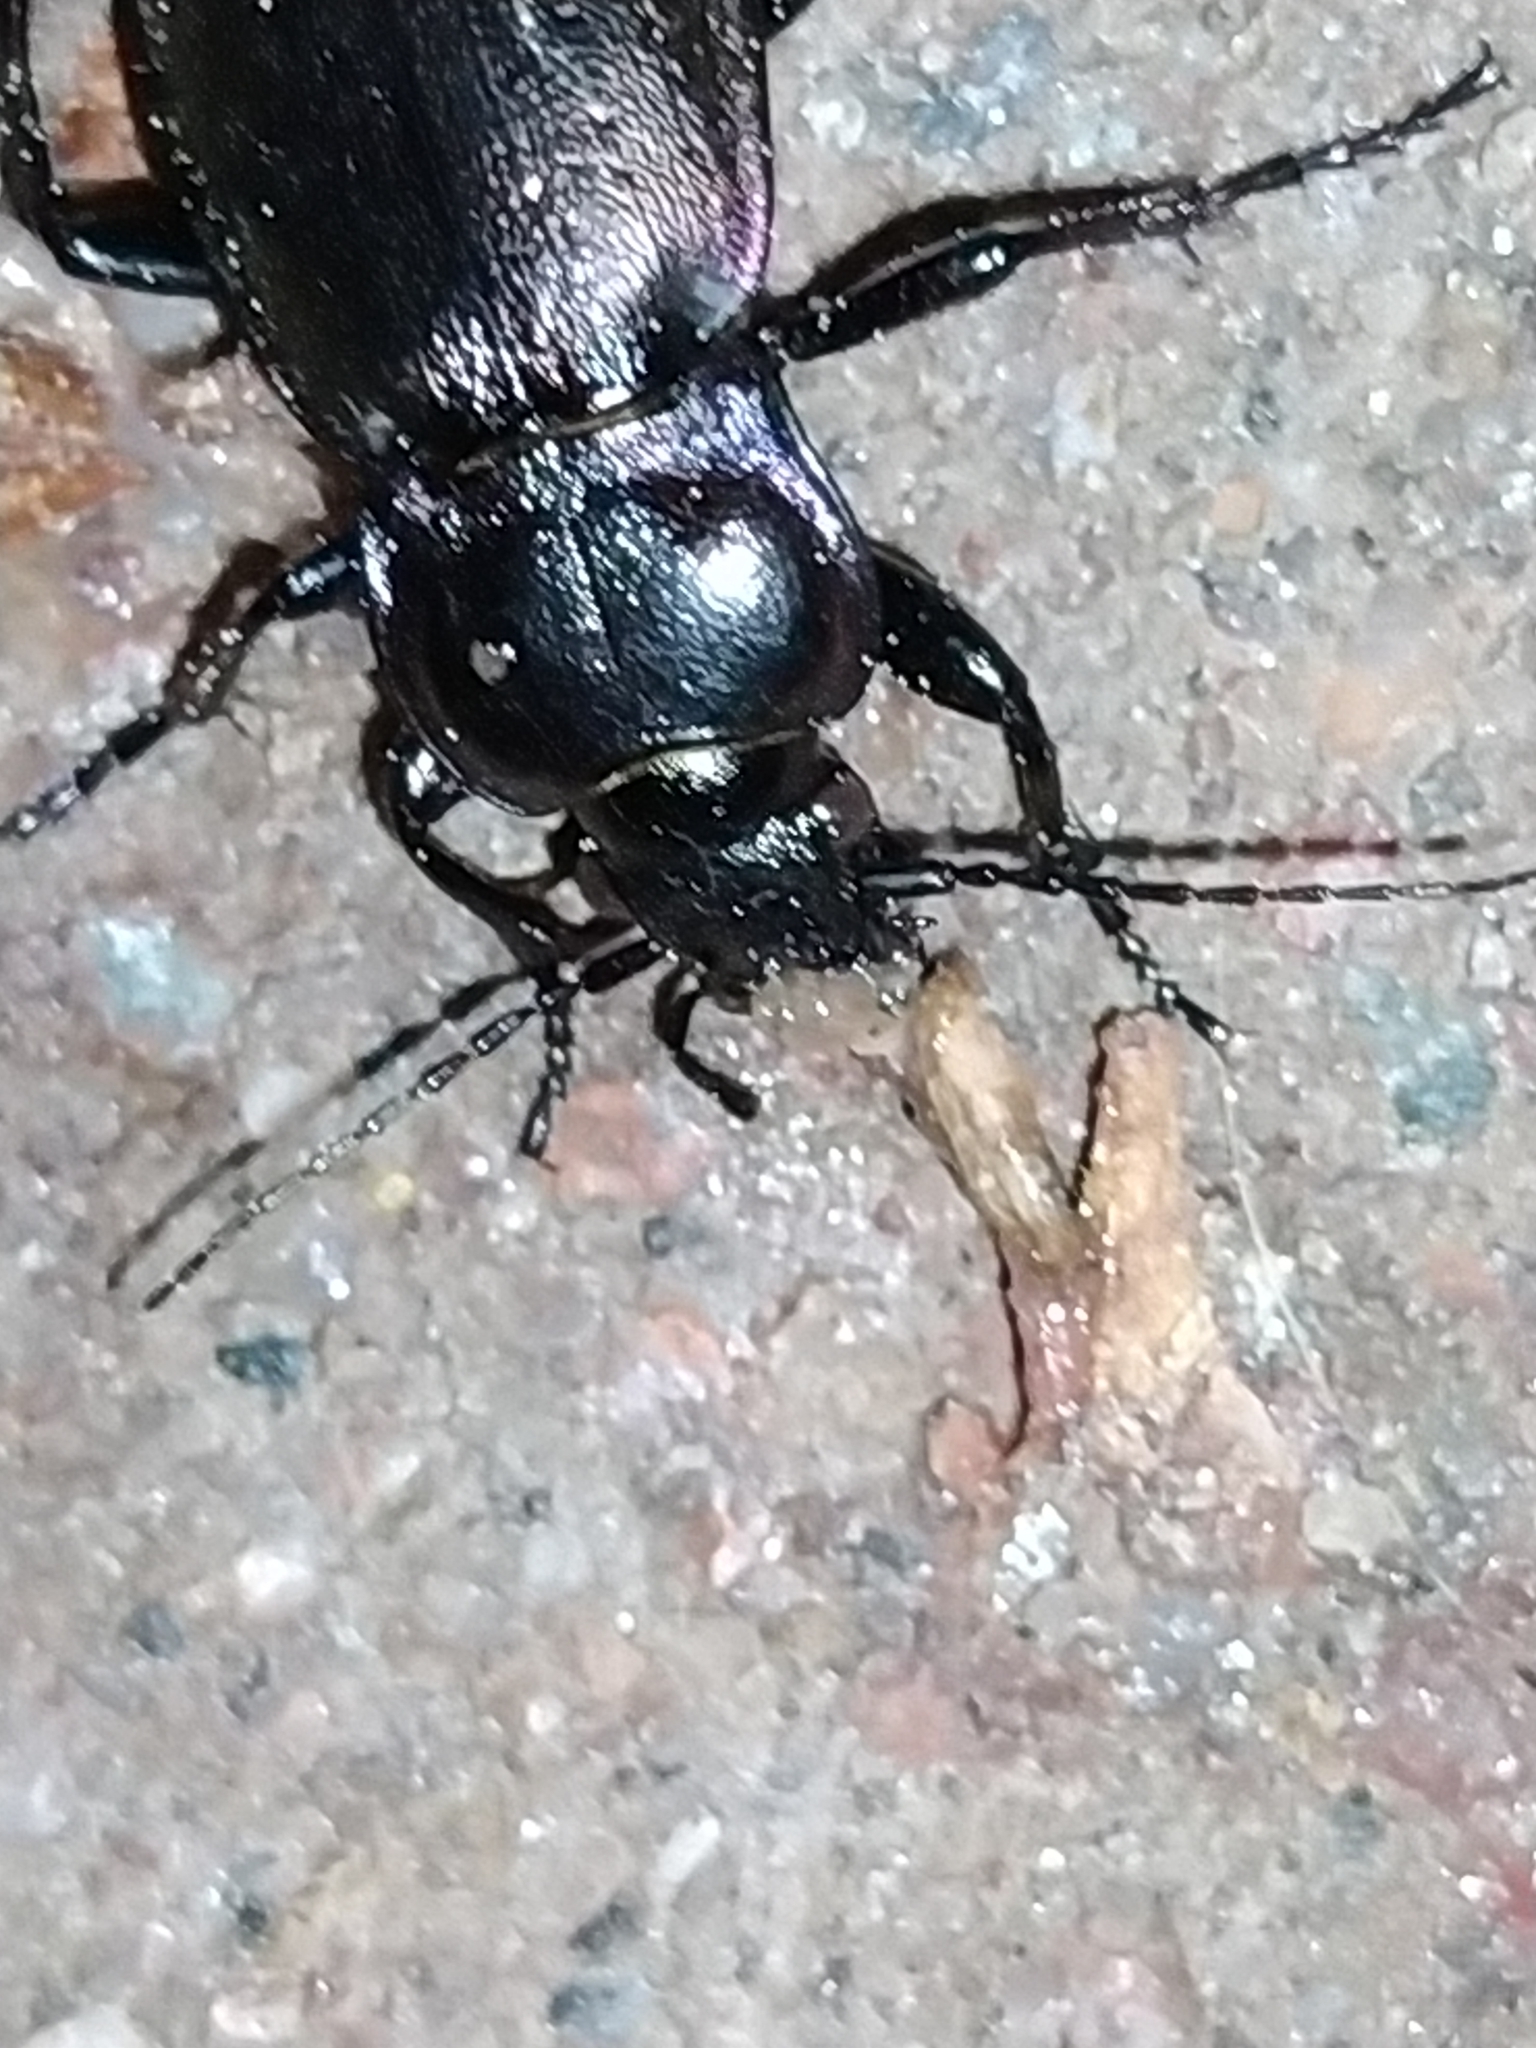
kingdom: Animalia
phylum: Arthropoda
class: Insecta
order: Coleoptera
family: Carabidae
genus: Carabus
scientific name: Carabus nemoralis
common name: European ground beetle
